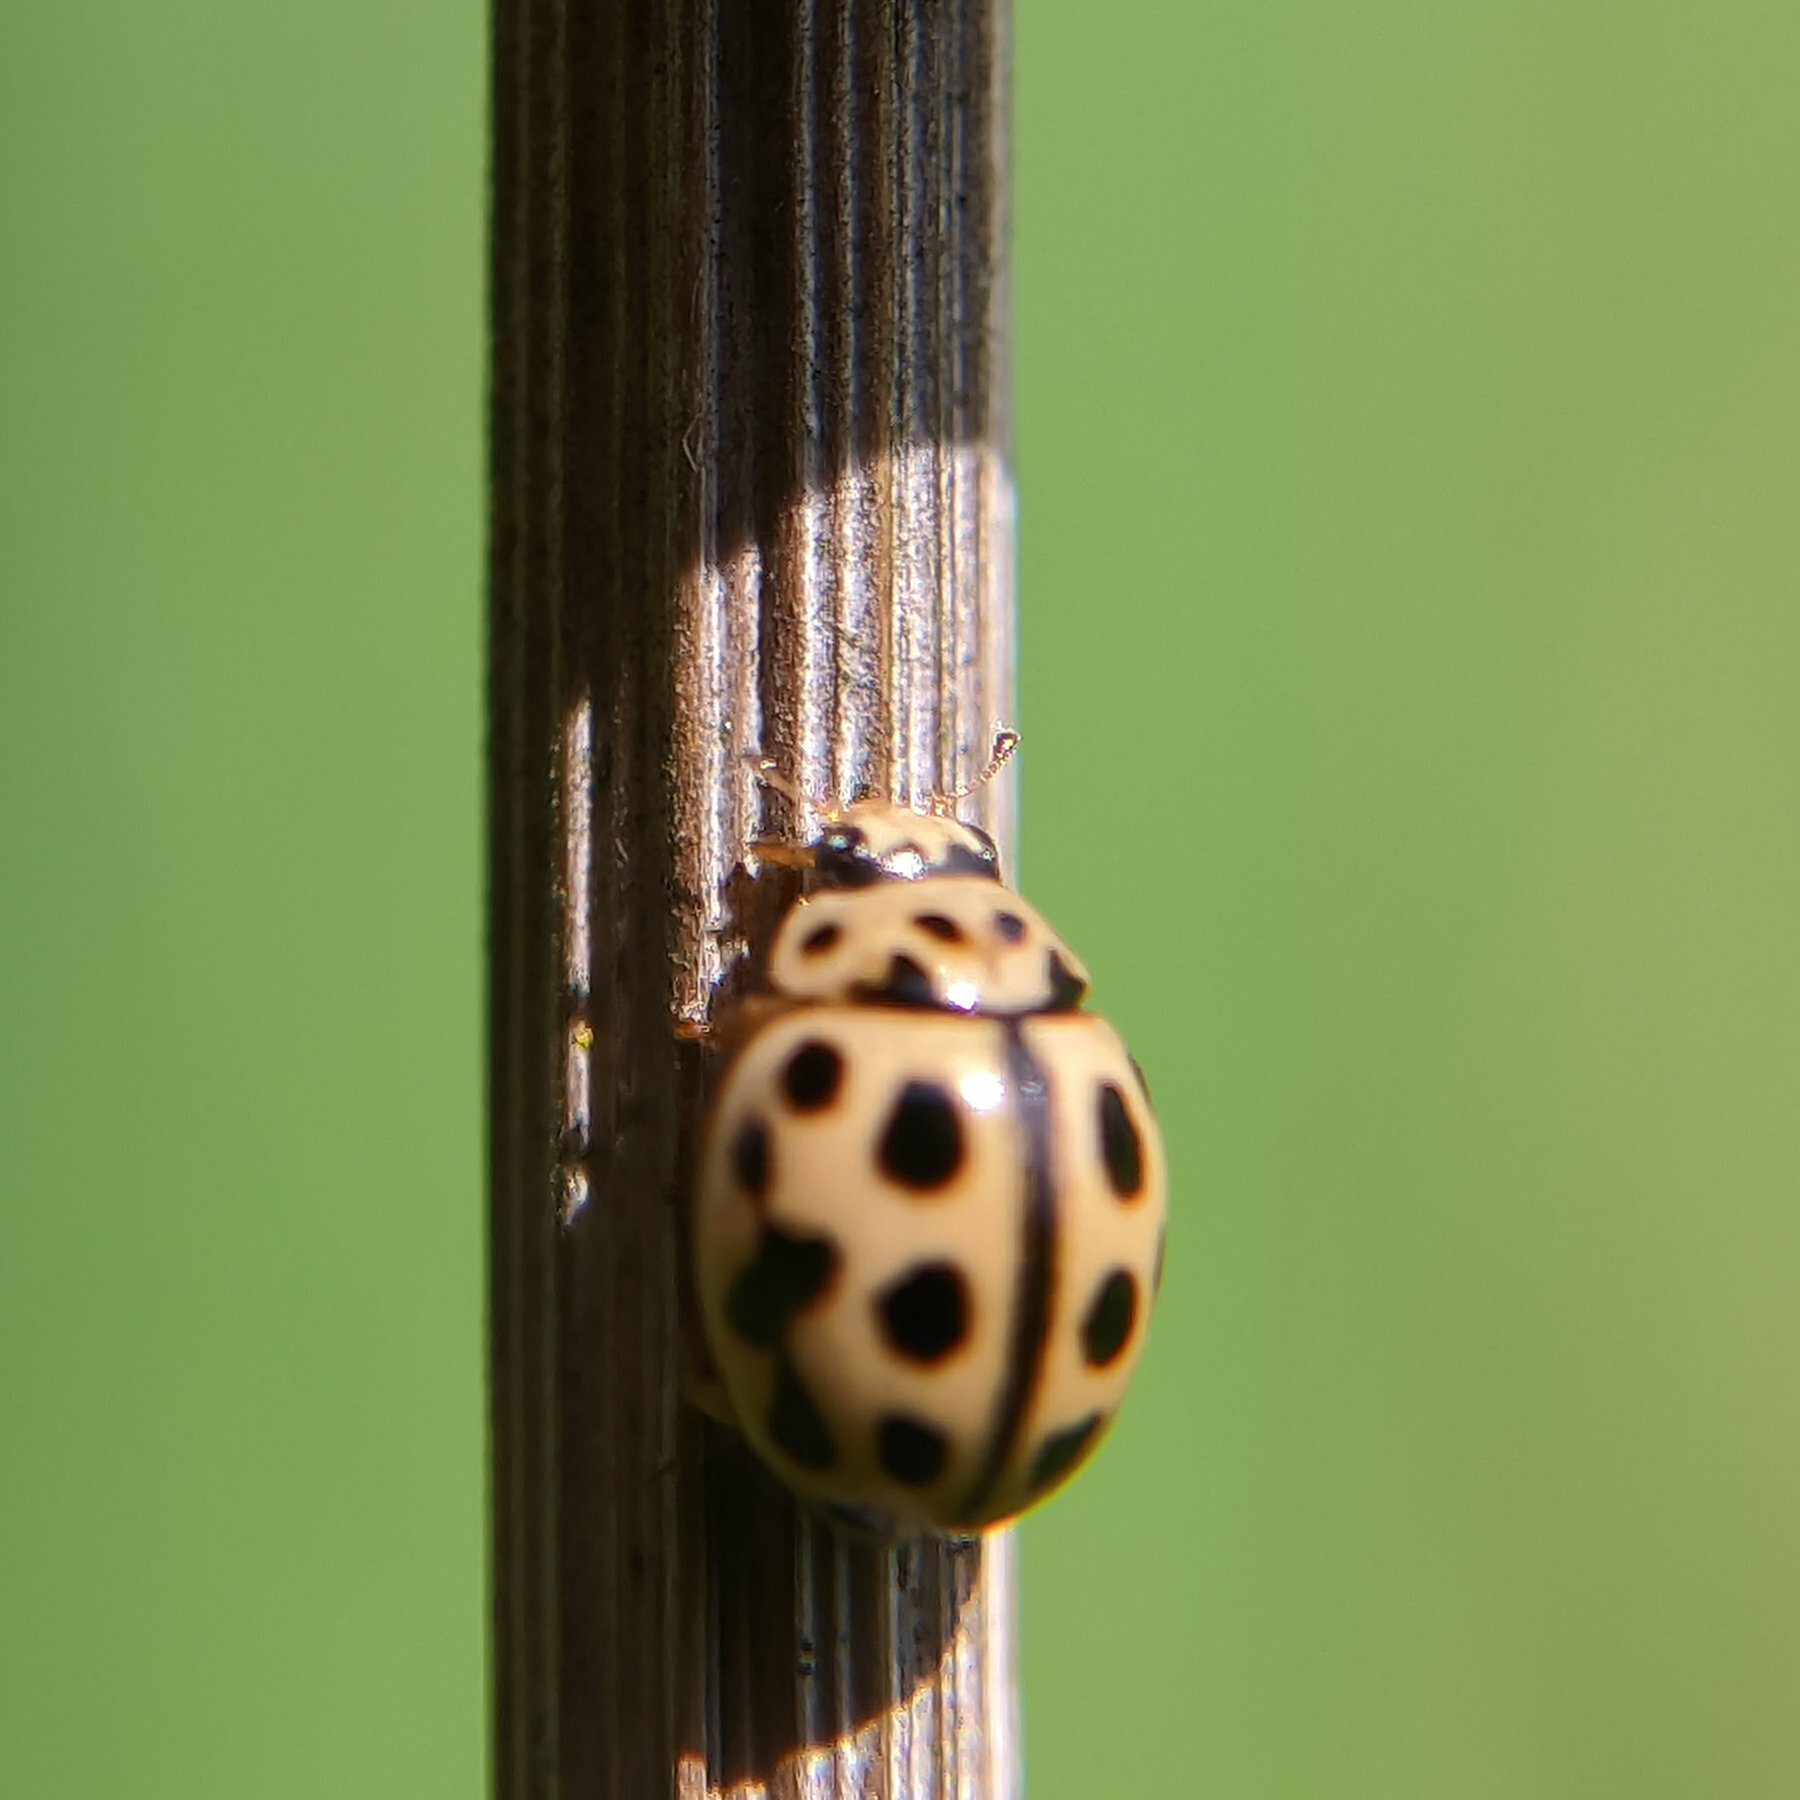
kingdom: Animalia
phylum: Arthropoda
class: Insecta
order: Coleoptera
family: Coccinellidae
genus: Tytthaspis
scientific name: Tytthaspis sedecimpunctata
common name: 16-spot ladybird
